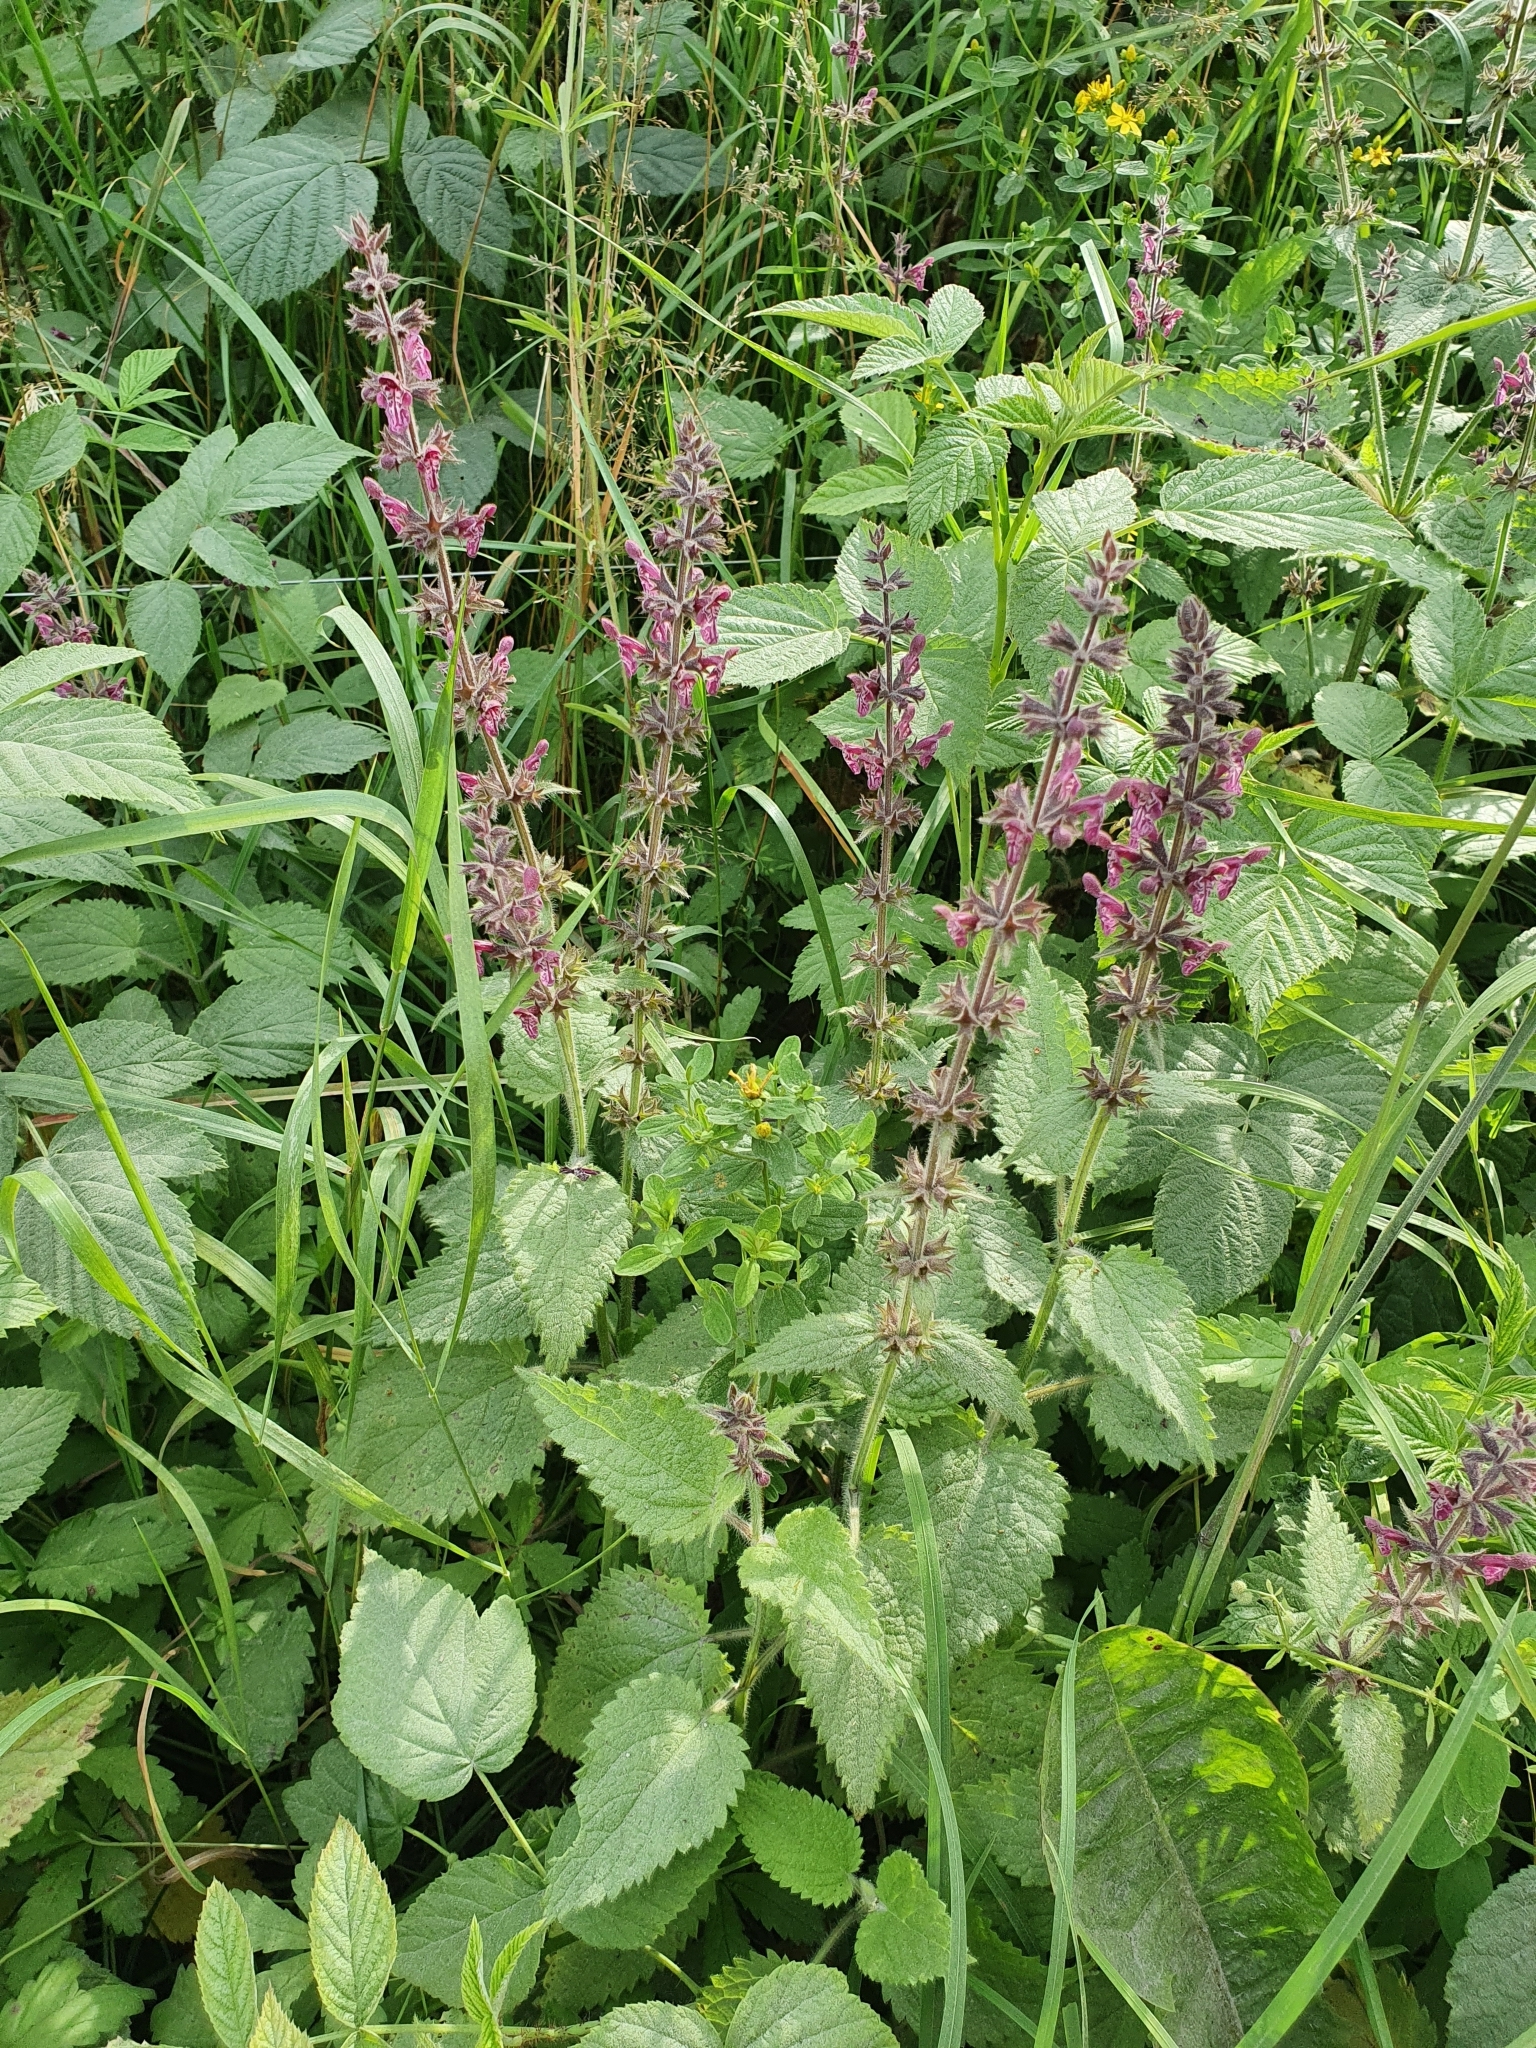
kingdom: Plantae
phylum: Tracheophyta
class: Magnoliopsida
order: Lamiales
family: Lamiaceae
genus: Stachys
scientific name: Stachys sylvatica
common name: Hedge woundwort
